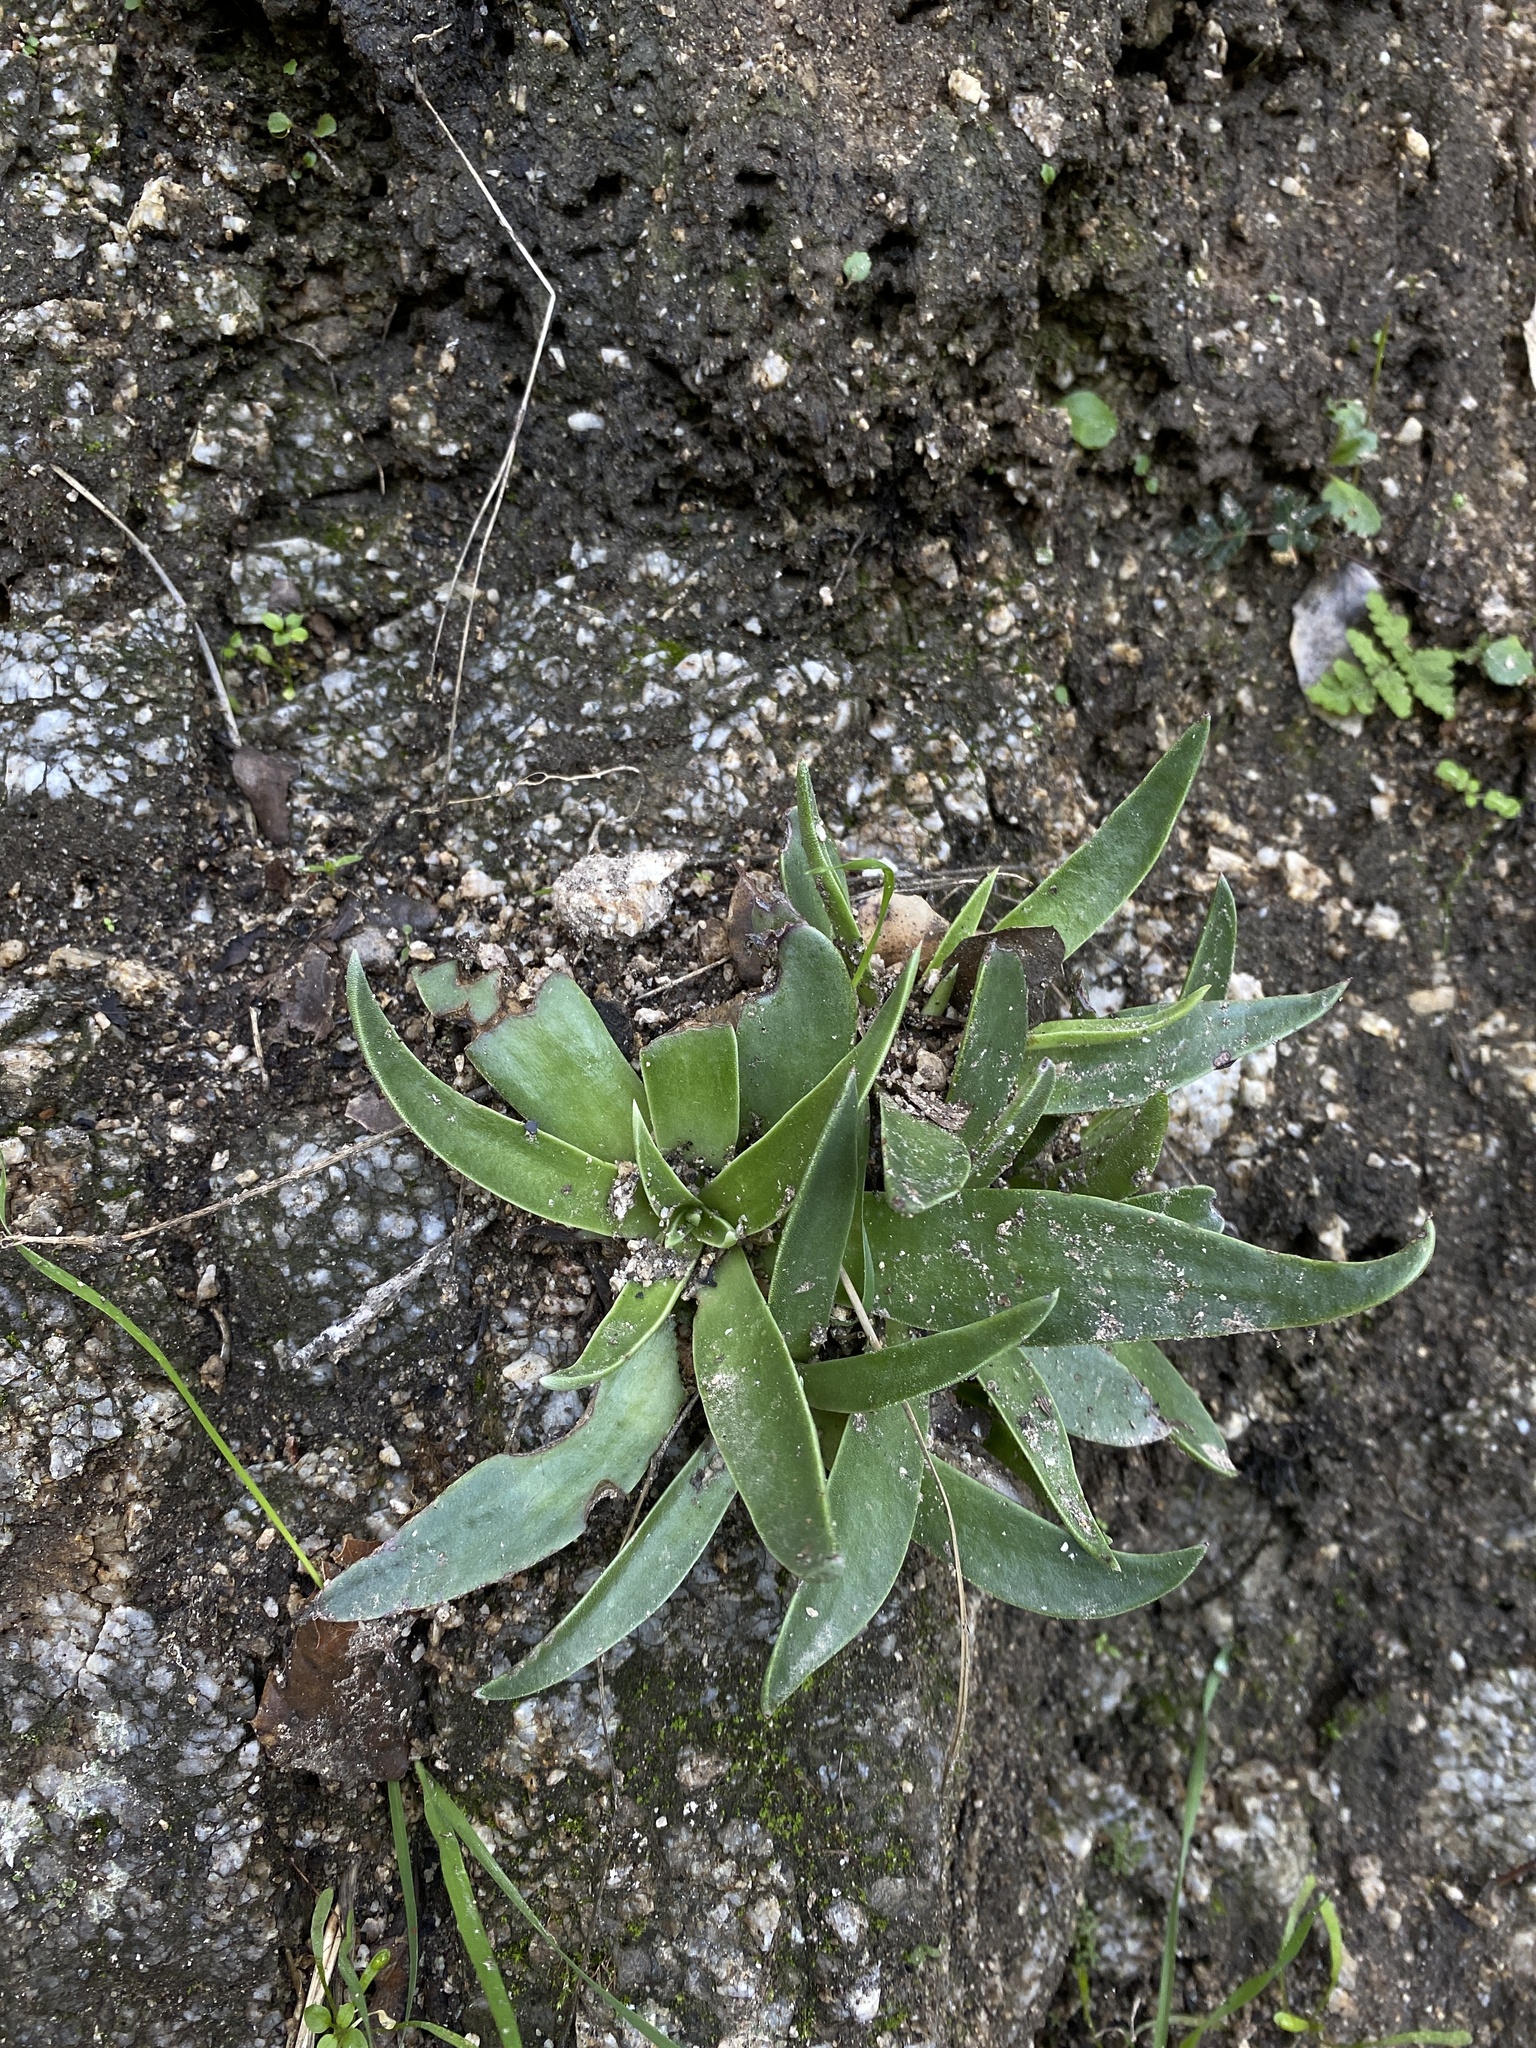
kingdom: Plantae
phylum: Tracheophyta
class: Magnoliopsida
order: Saxifragales
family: Crassulaceae
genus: Dudleya
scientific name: Dudleya lanceolata
